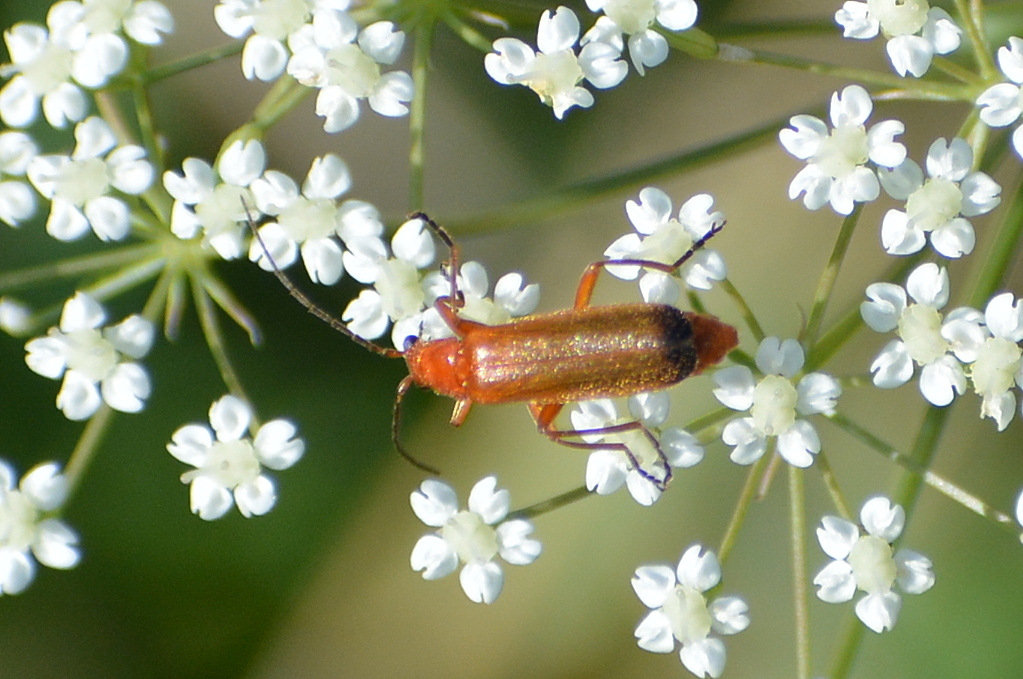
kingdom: Animalia
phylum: Arthropoda
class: Insecta
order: Coleoptera
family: Cantharidae
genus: Rhagonycha
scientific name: Rhagonycha fulva
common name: Common red soldier beetle
